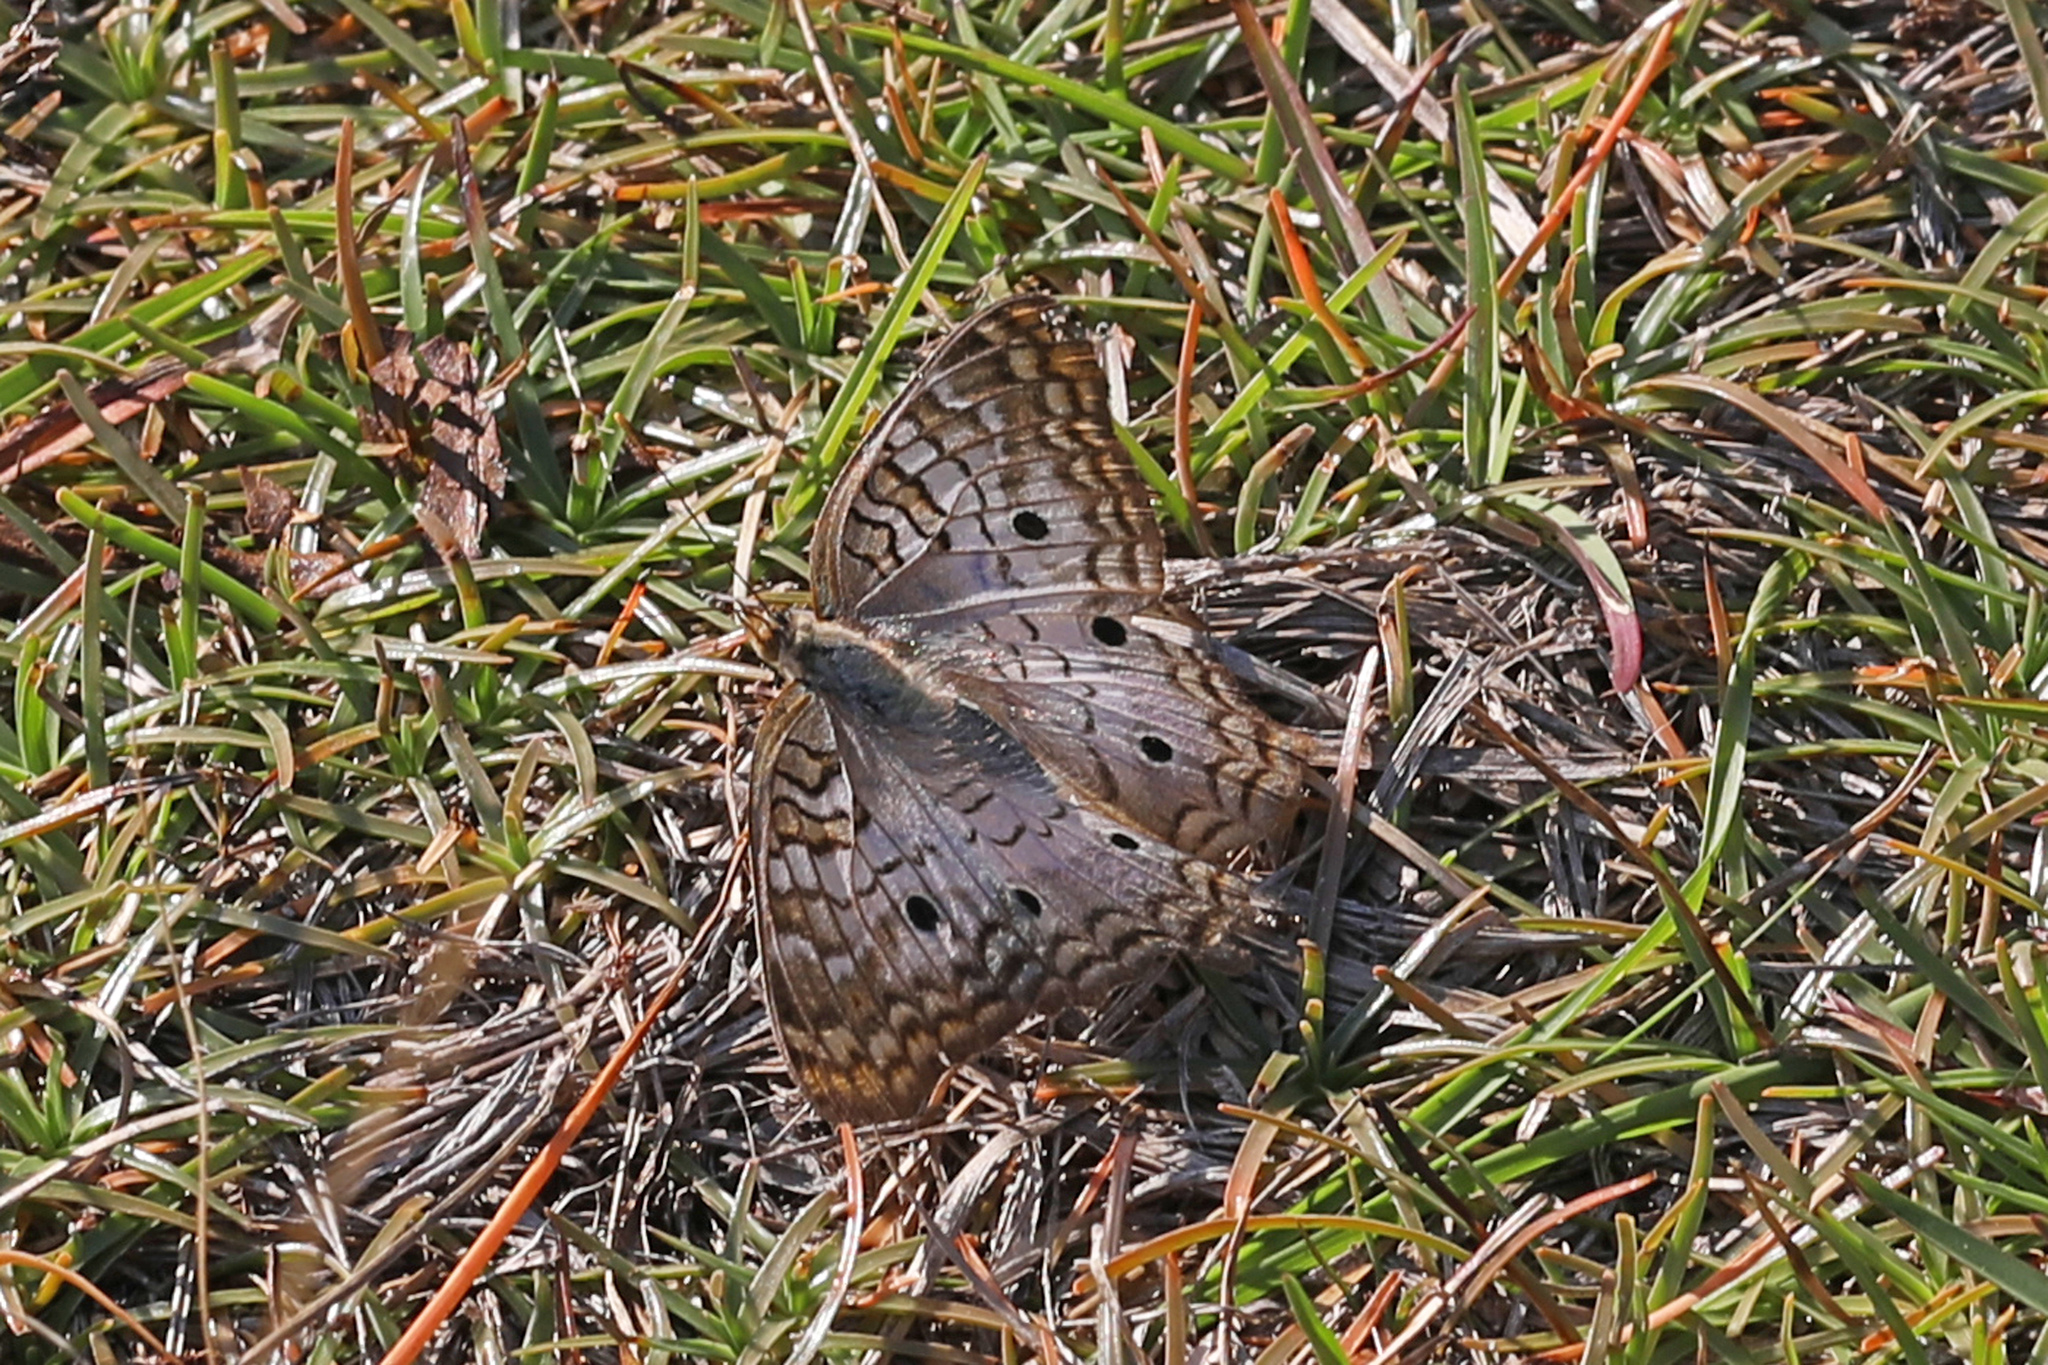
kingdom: Animalia
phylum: Arthropoda
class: Insecta
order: Lepidoptera
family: Nymphalidae
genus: Anartia
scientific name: Anartia jatrophae
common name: White peacock
